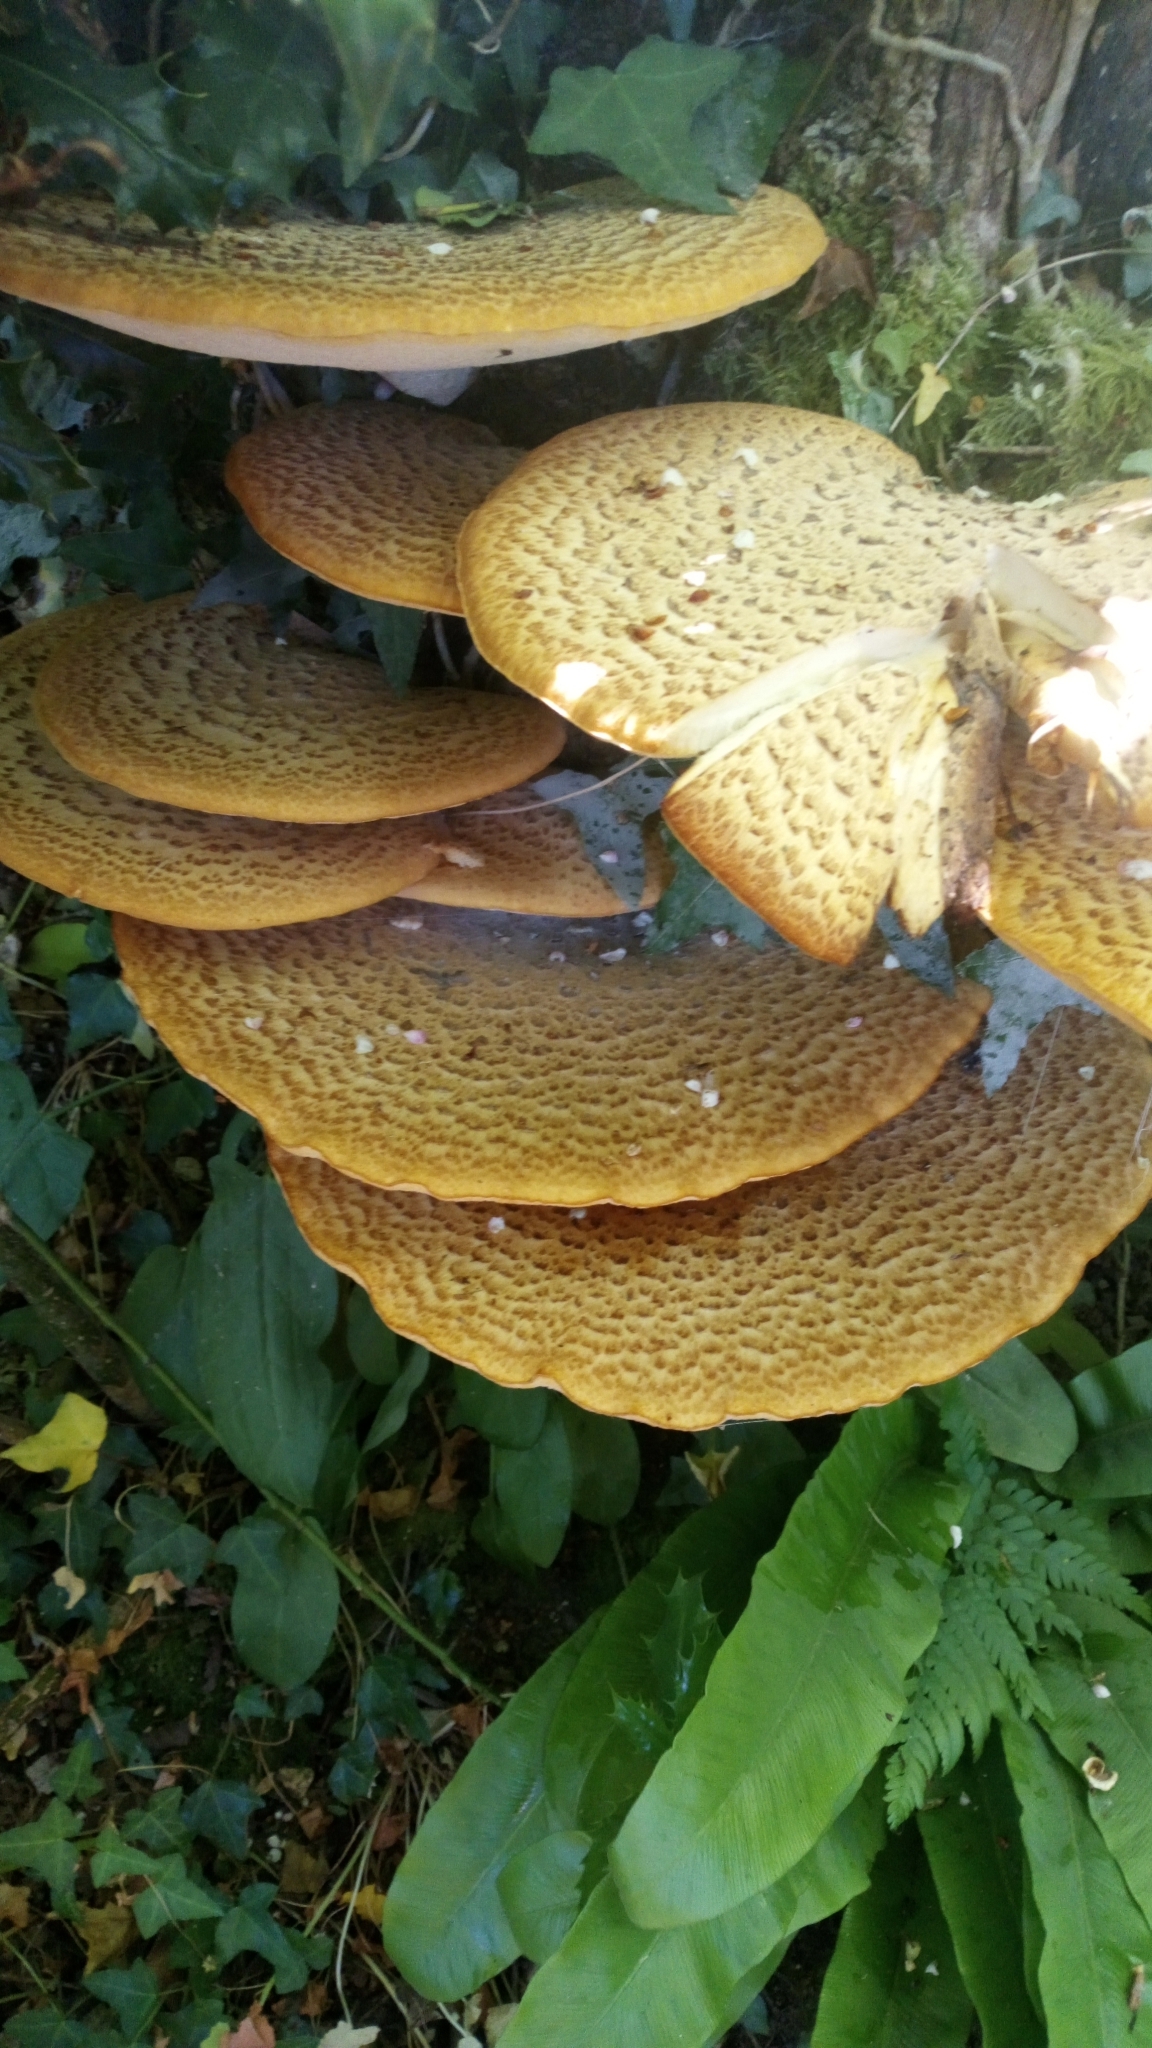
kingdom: Fungi
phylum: Basidiomycota
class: Agaricomycetes
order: Polyporales
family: Polyporaceae
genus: Cerioporus
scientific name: Cerioporus squamosus
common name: Dryad's saddle
